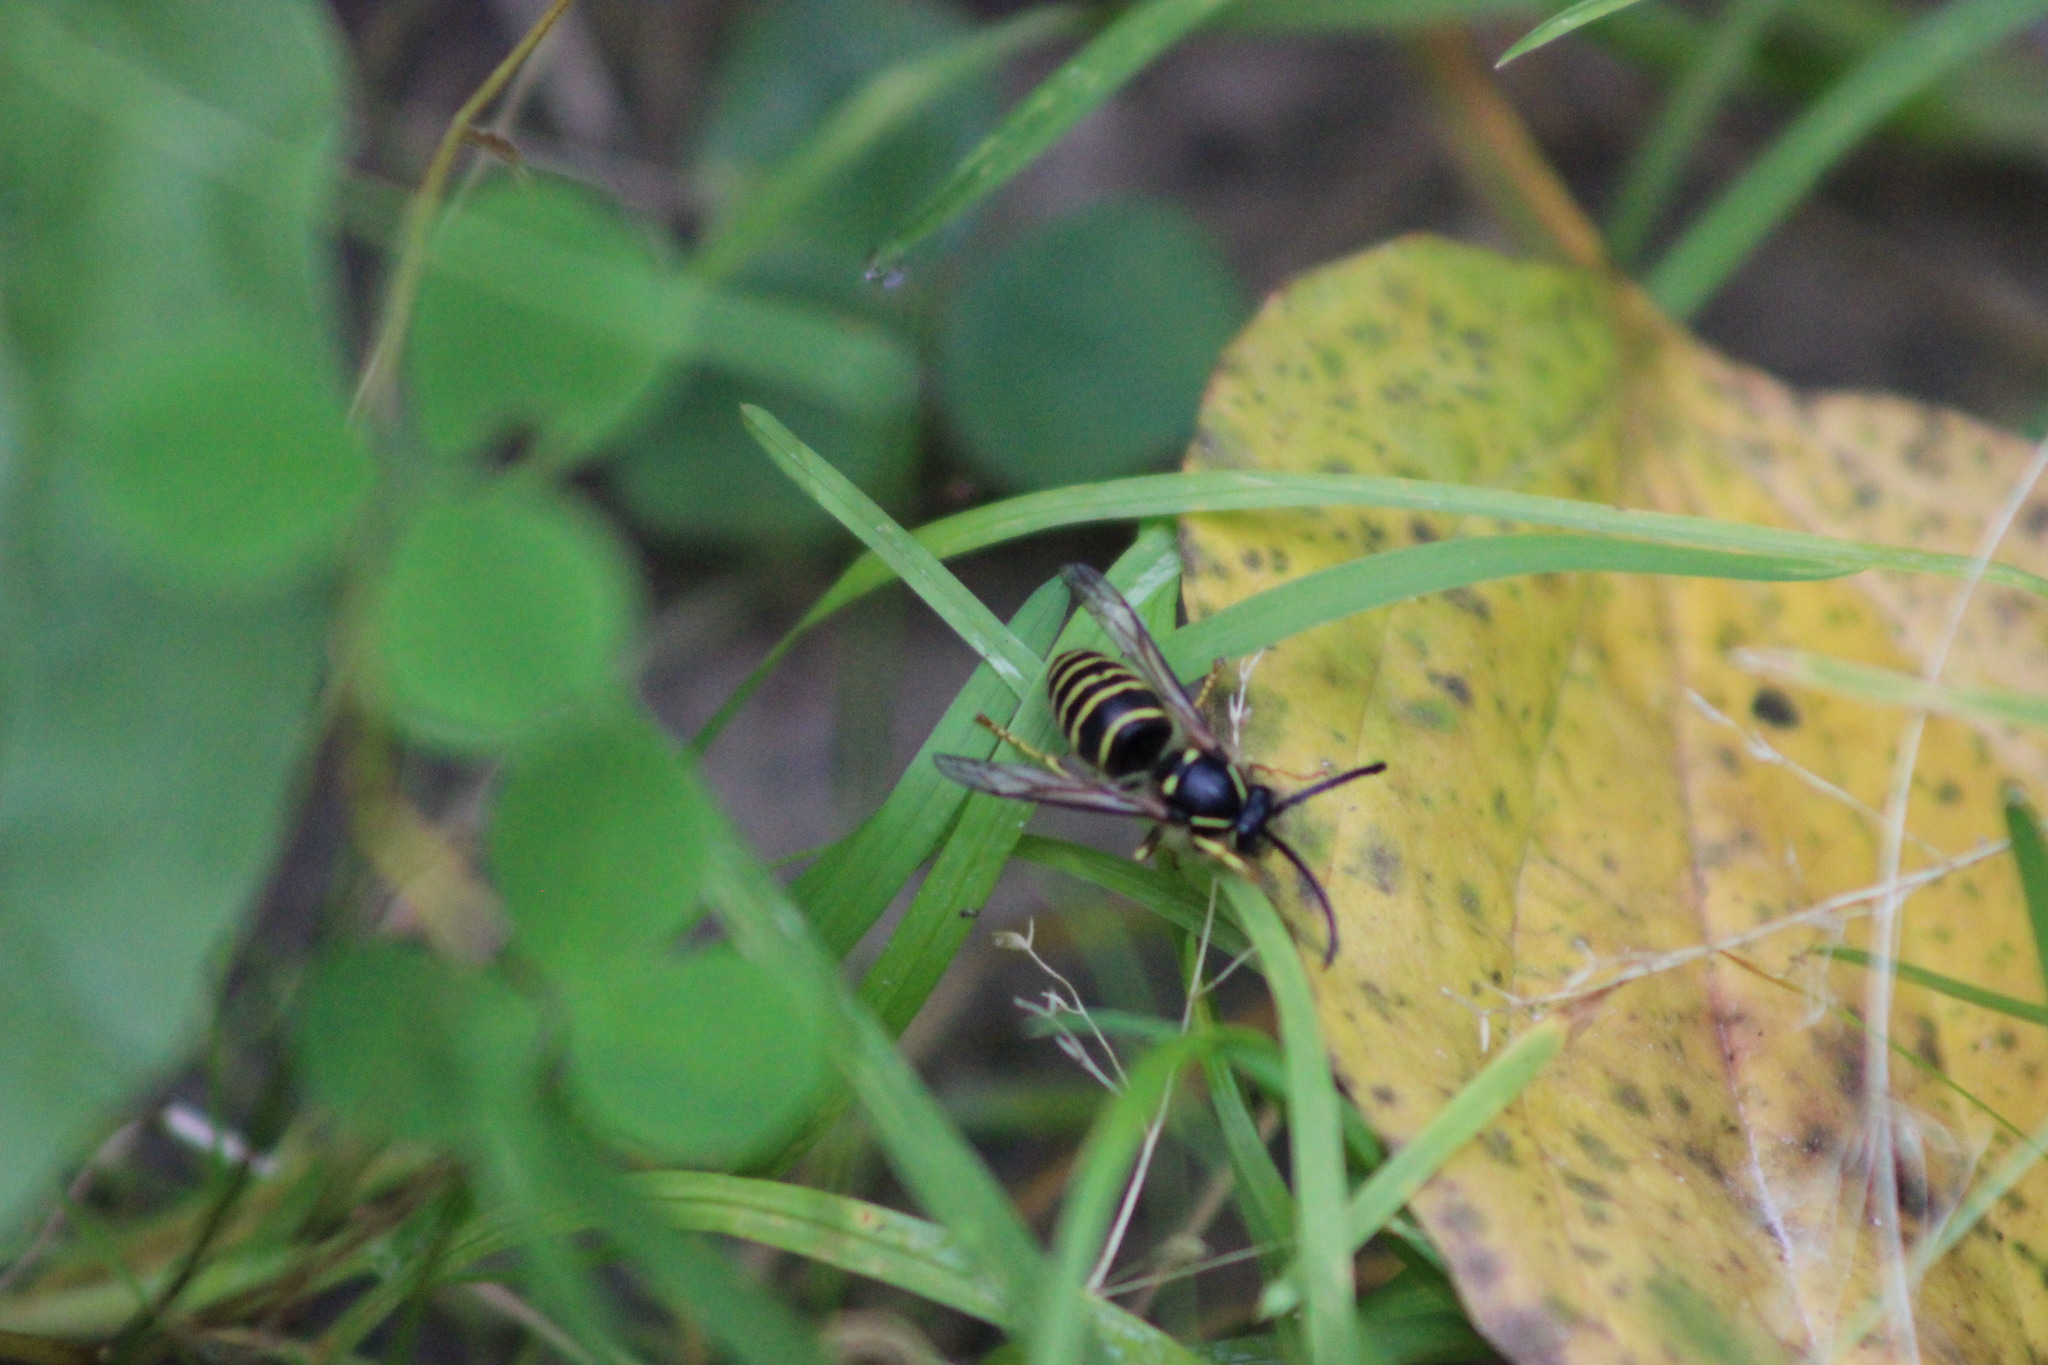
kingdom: Animalia
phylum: Arthropoda
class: Insecta
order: Hymenoptera
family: Vespidae
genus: Dolichovespula
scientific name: Dolichovespula saxonica
